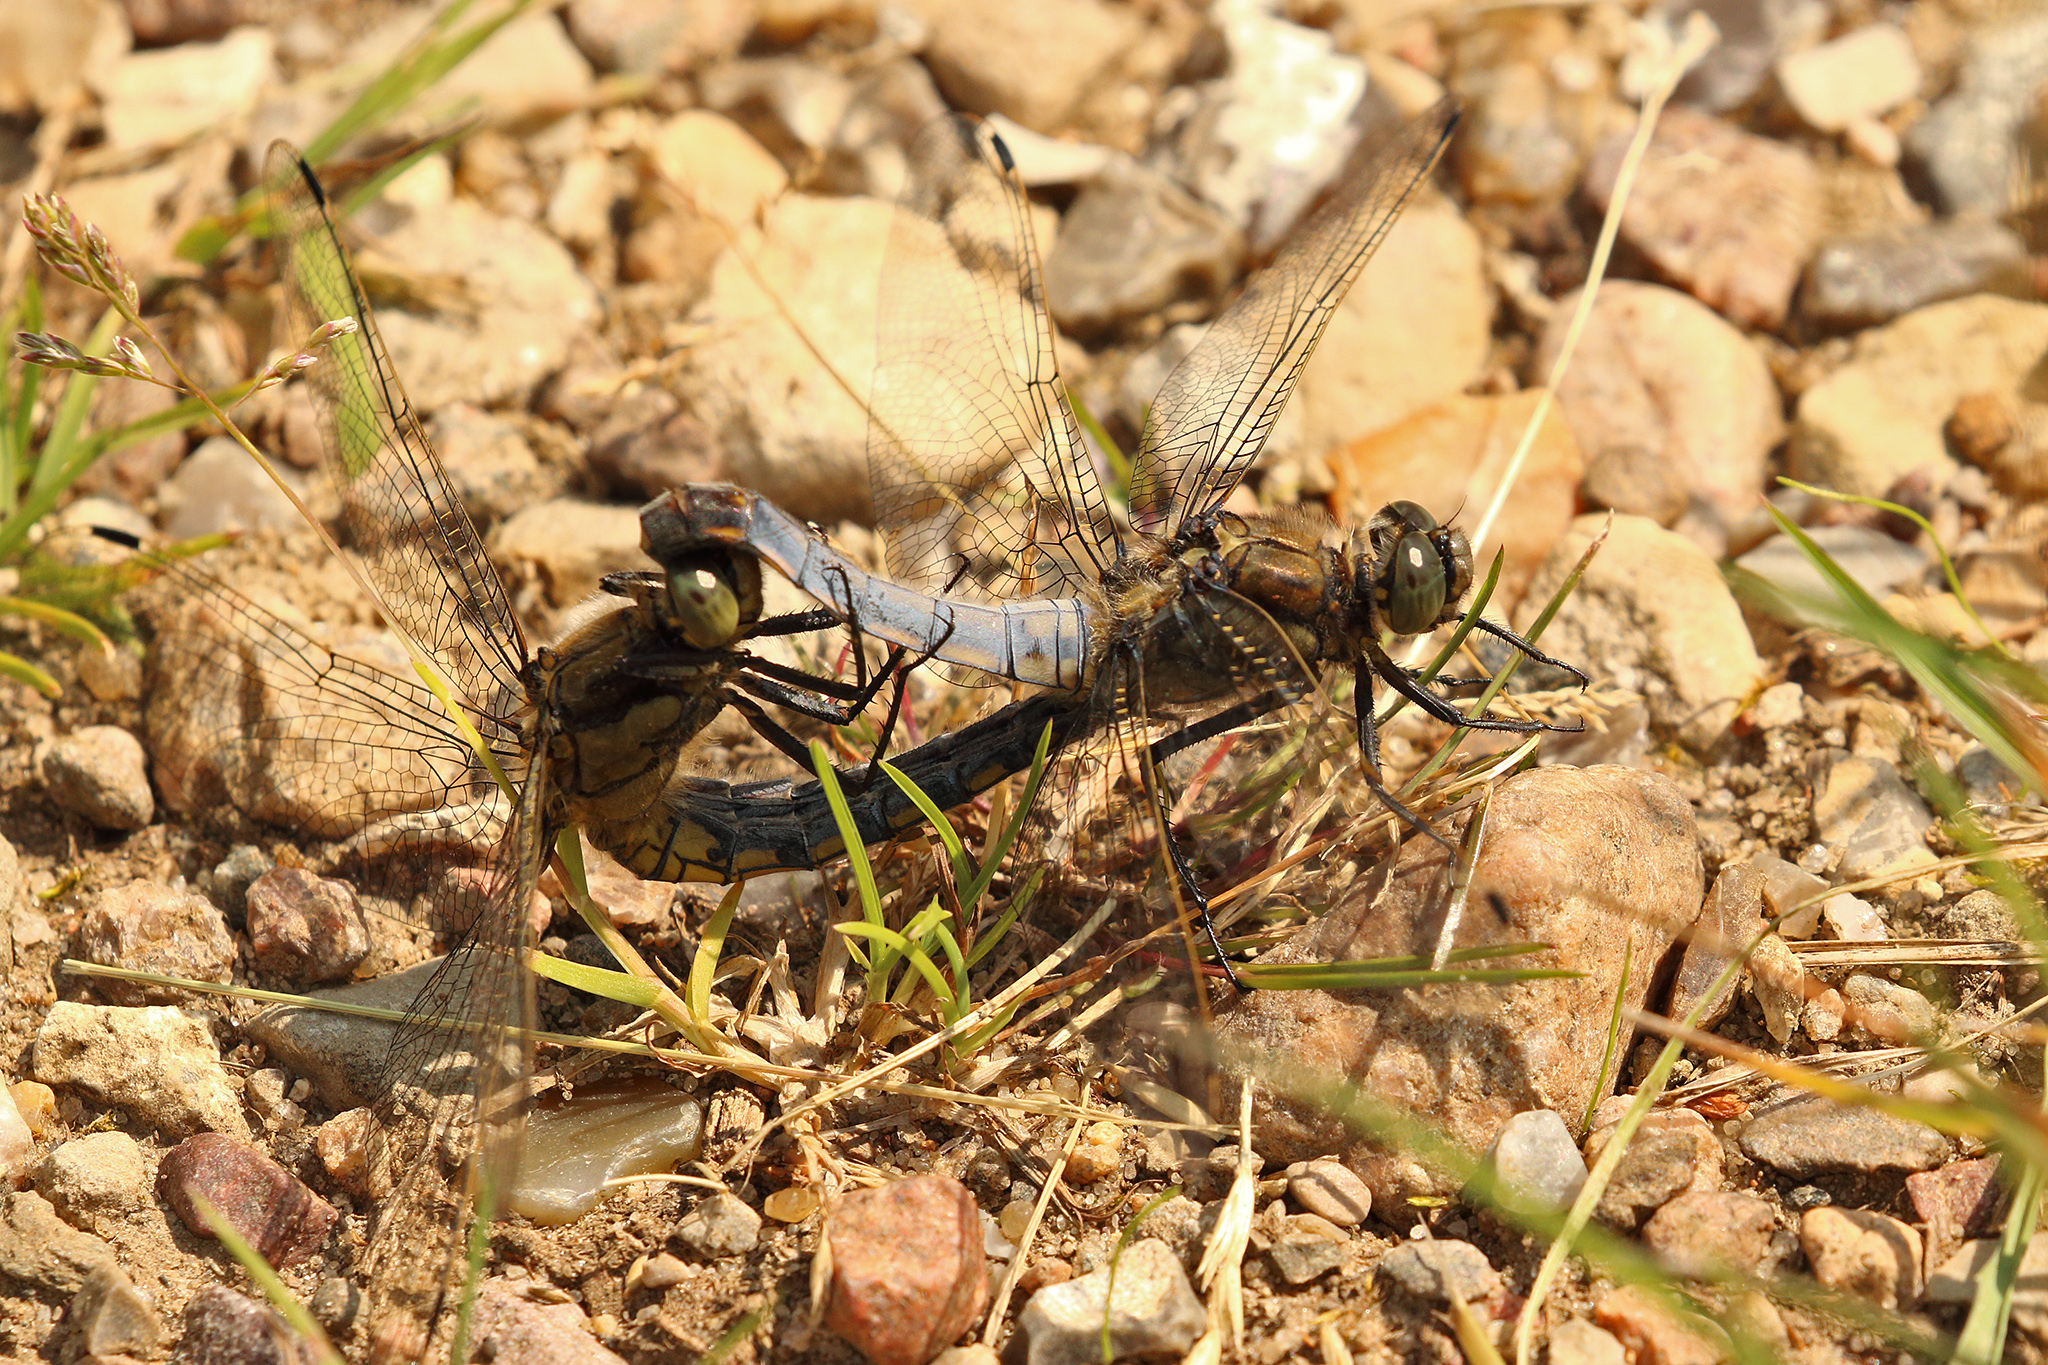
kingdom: Animalia
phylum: Arthropoda
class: Insecta
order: Odonata
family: Libellulidae
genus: Orthetrum
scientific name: Orthetrum cancellatum
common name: Black-tailed skimmer
